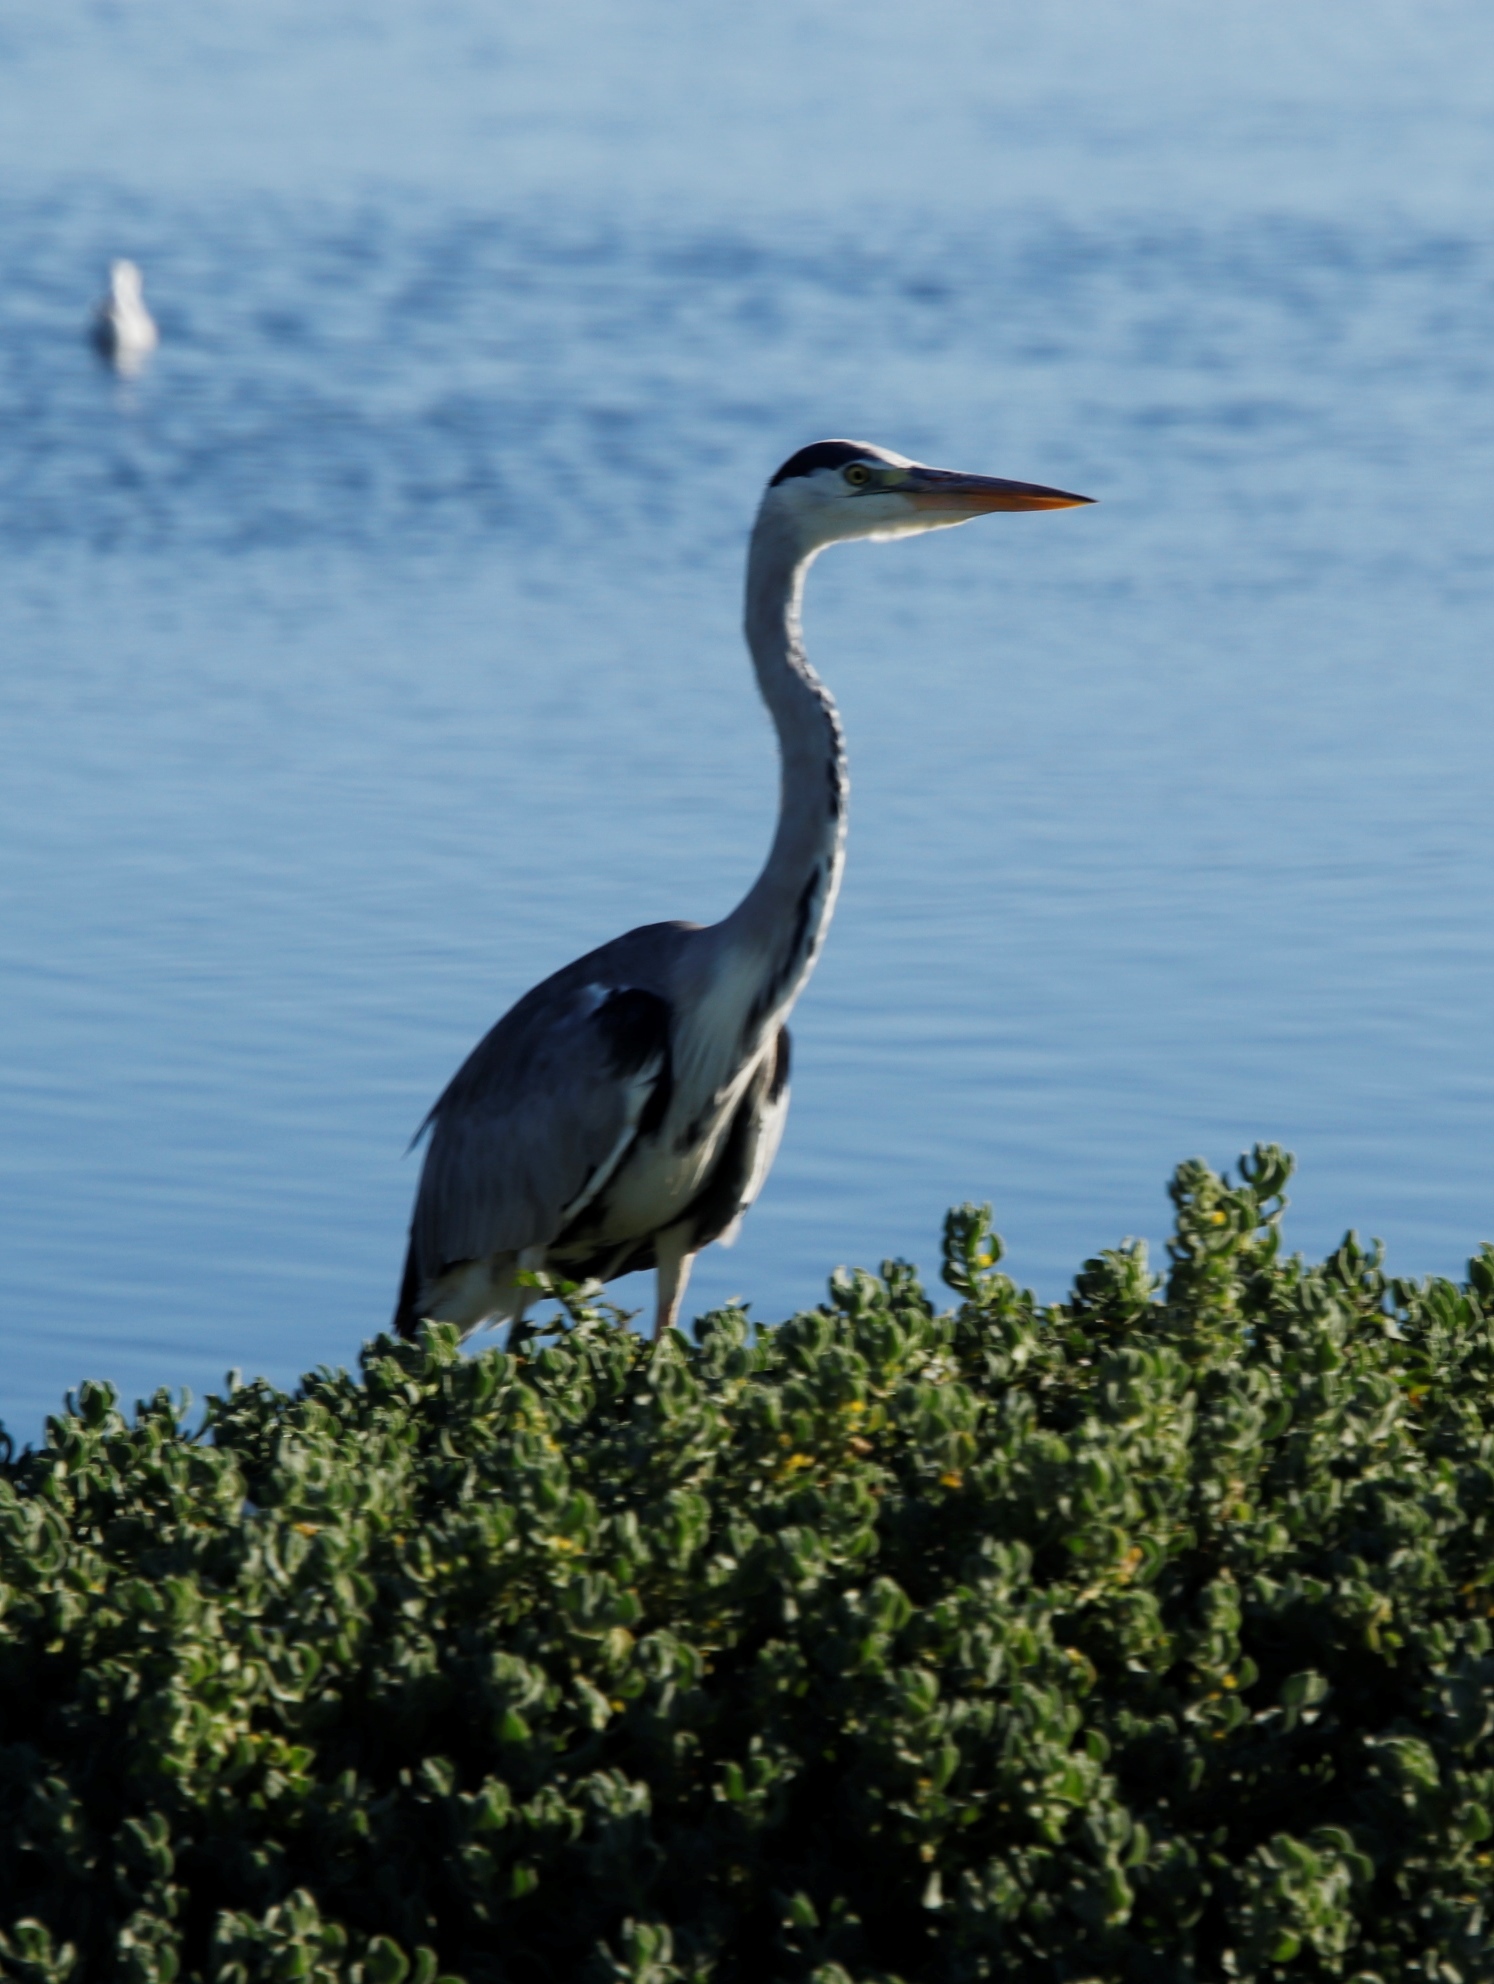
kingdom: Animalia
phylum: Chordata
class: Aves
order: Pelecaniformes
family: Ardeidae
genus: Ardea
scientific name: Ardea cinerea
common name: Grey heron
